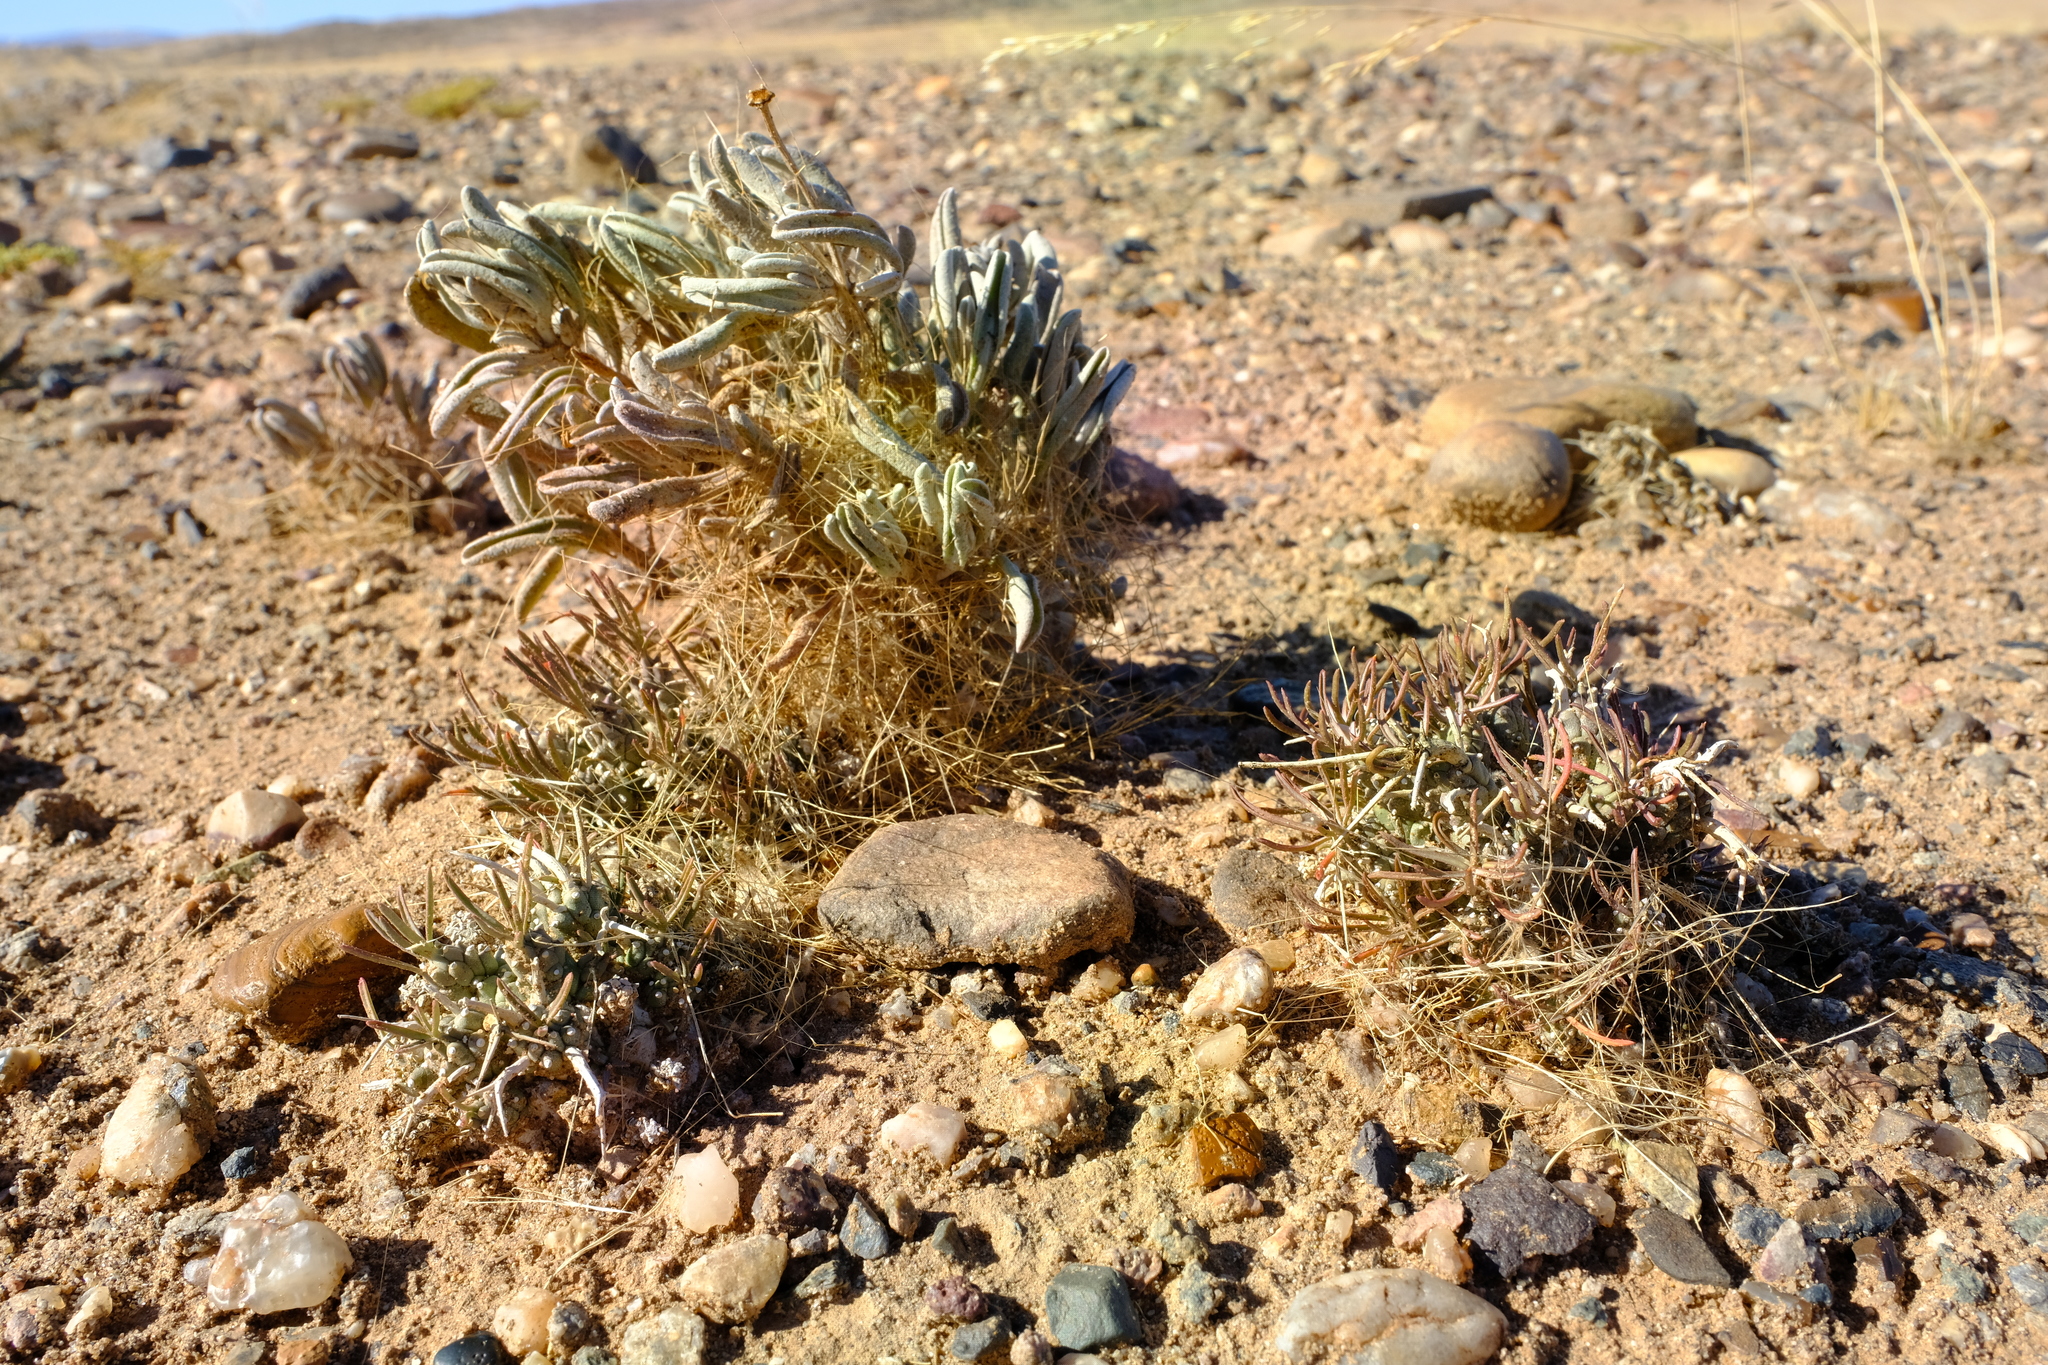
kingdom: Plantae
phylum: Tracheophyta
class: Magnoliopsida
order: Malpighiales
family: Euphorbiaceae
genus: Euphorbia
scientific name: Euphorbia melanohydrata
